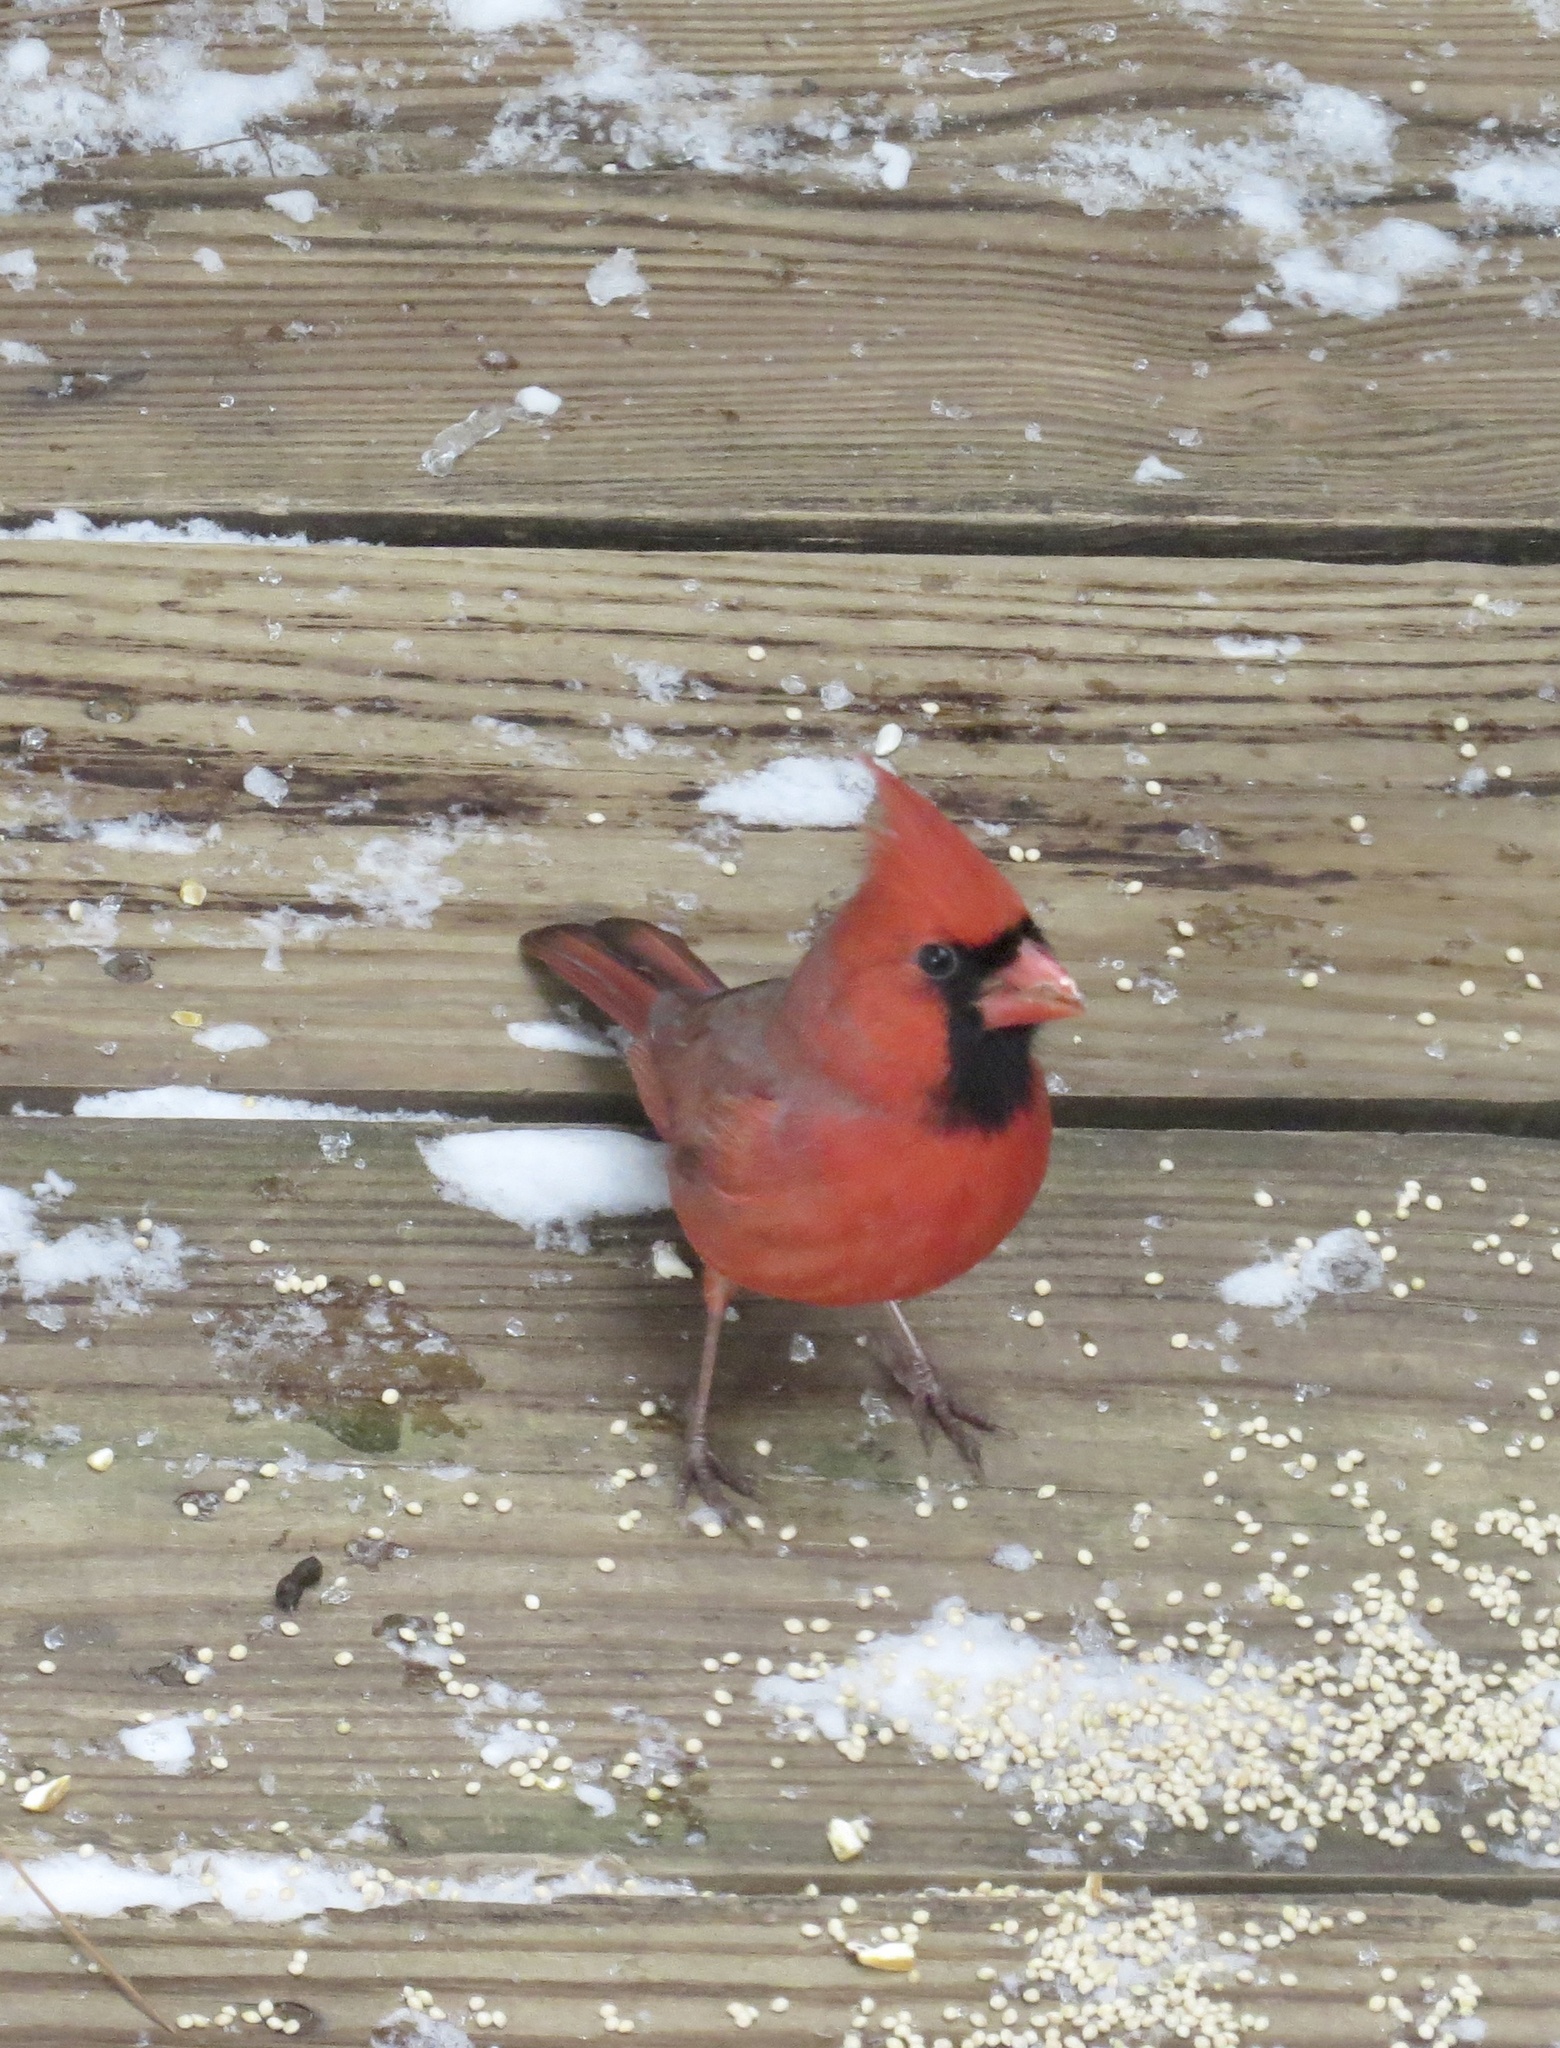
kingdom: Animalia
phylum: Chordata
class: Aves
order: Passeriformes
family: Cardinalidae
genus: Cardinalis
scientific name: Cardinalis cardinalis
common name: Northern cardinal
